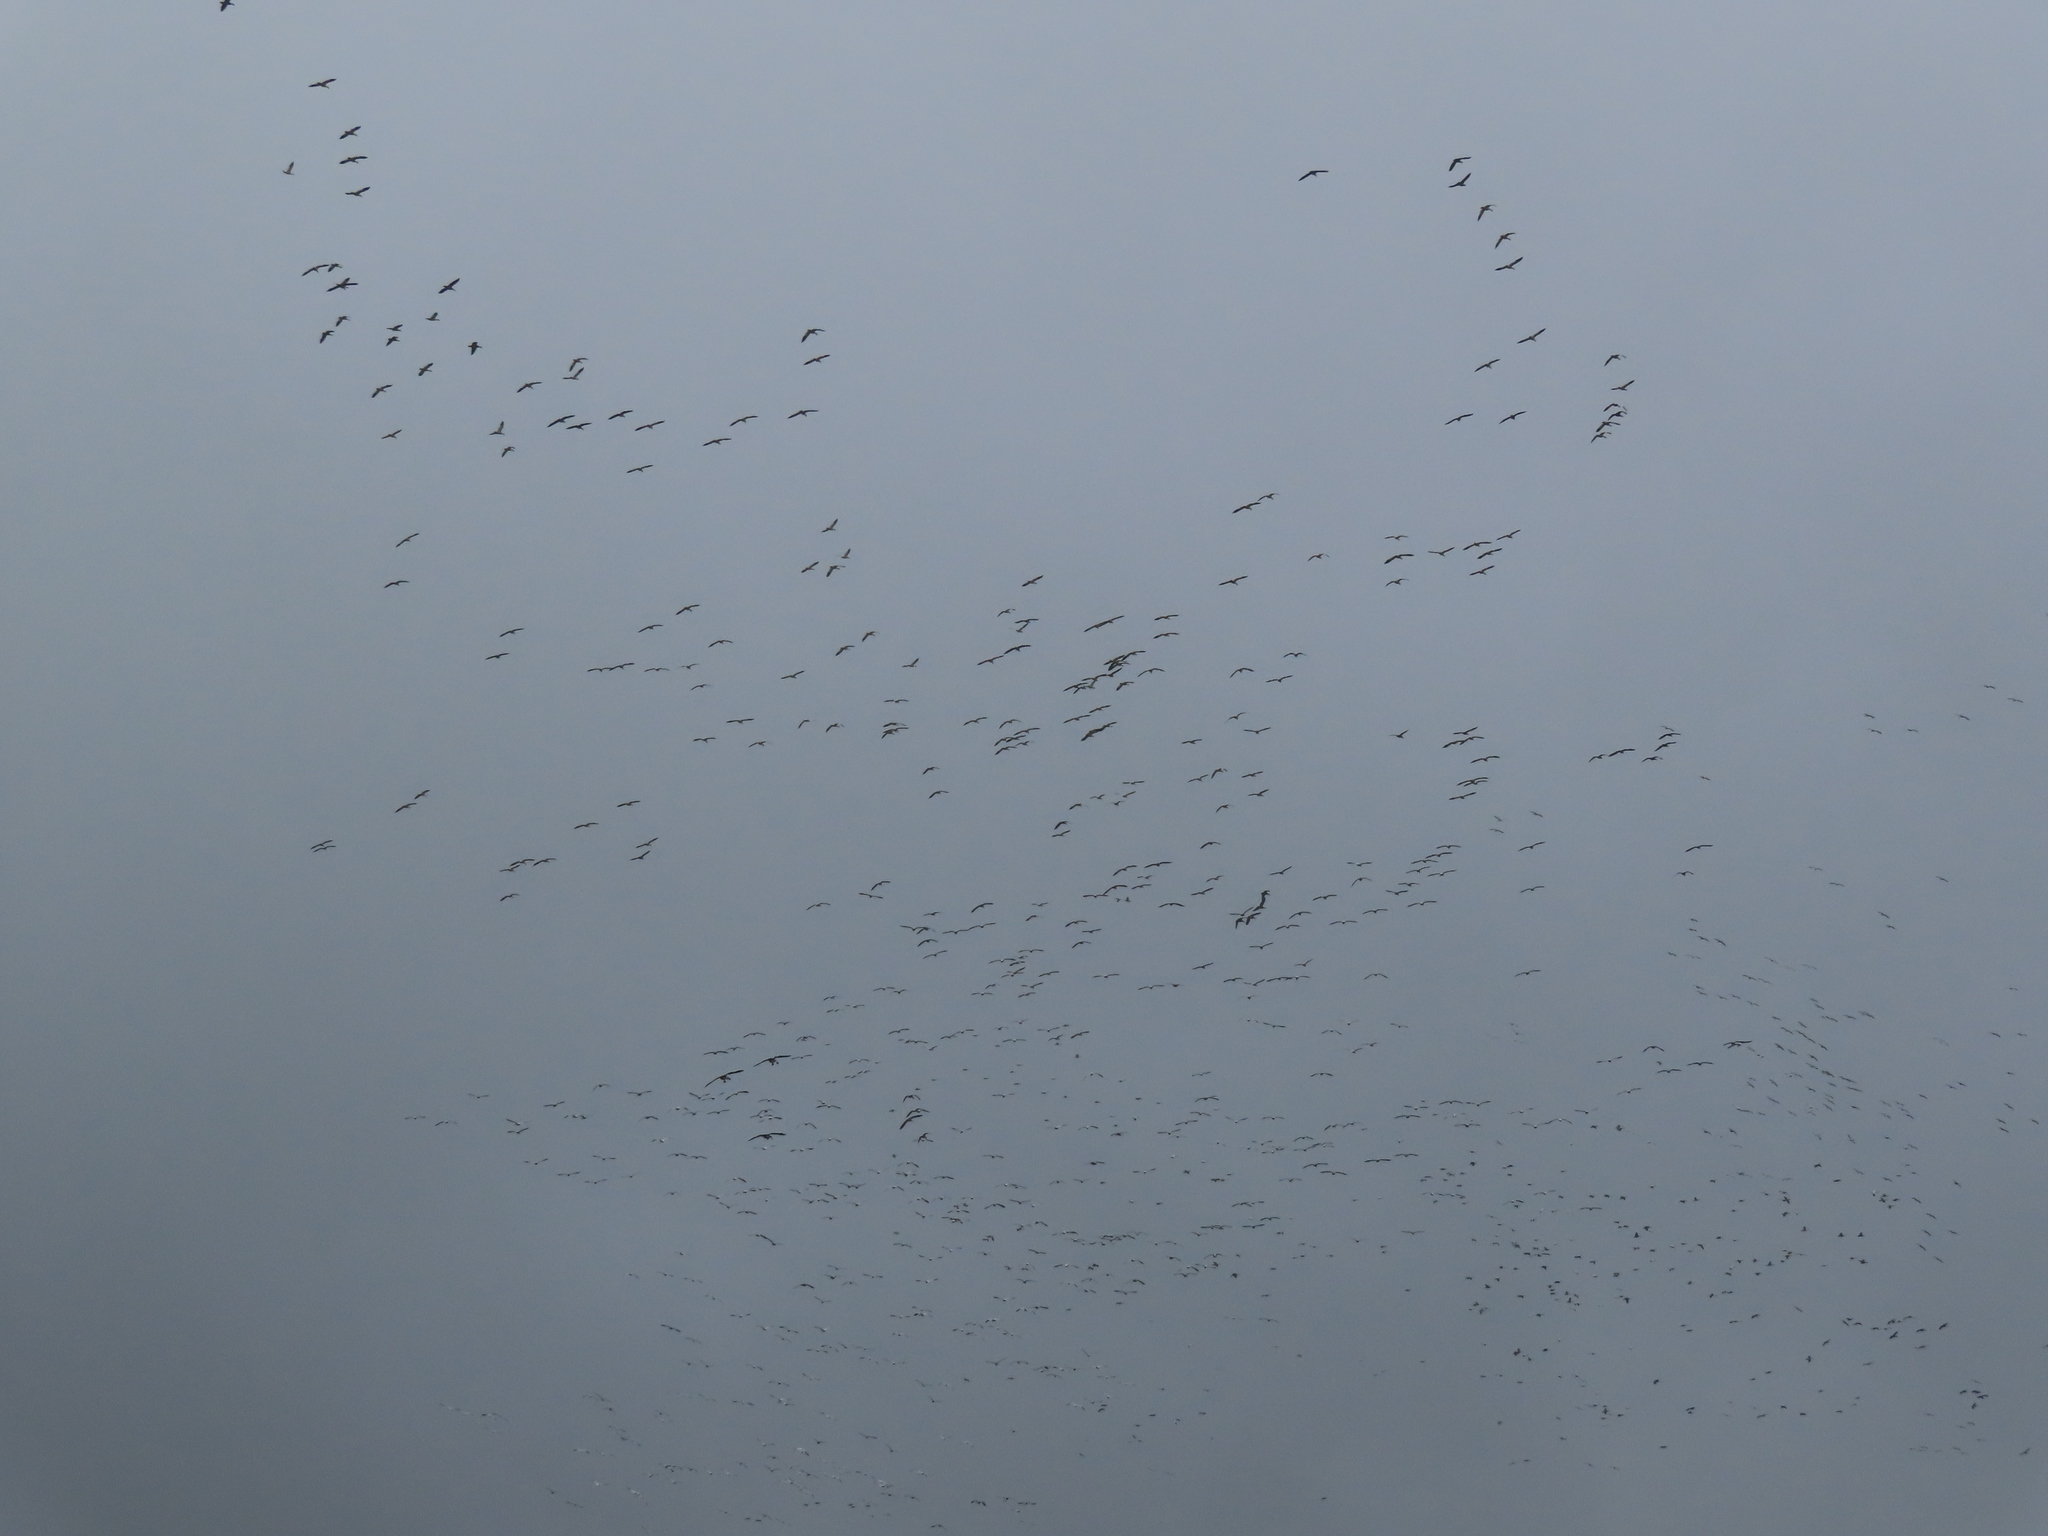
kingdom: Animalia
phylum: Chordata
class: Aves
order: Anseriformes
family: Anatidae
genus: Anser
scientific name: Anser caerulescens
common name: Snow goose
